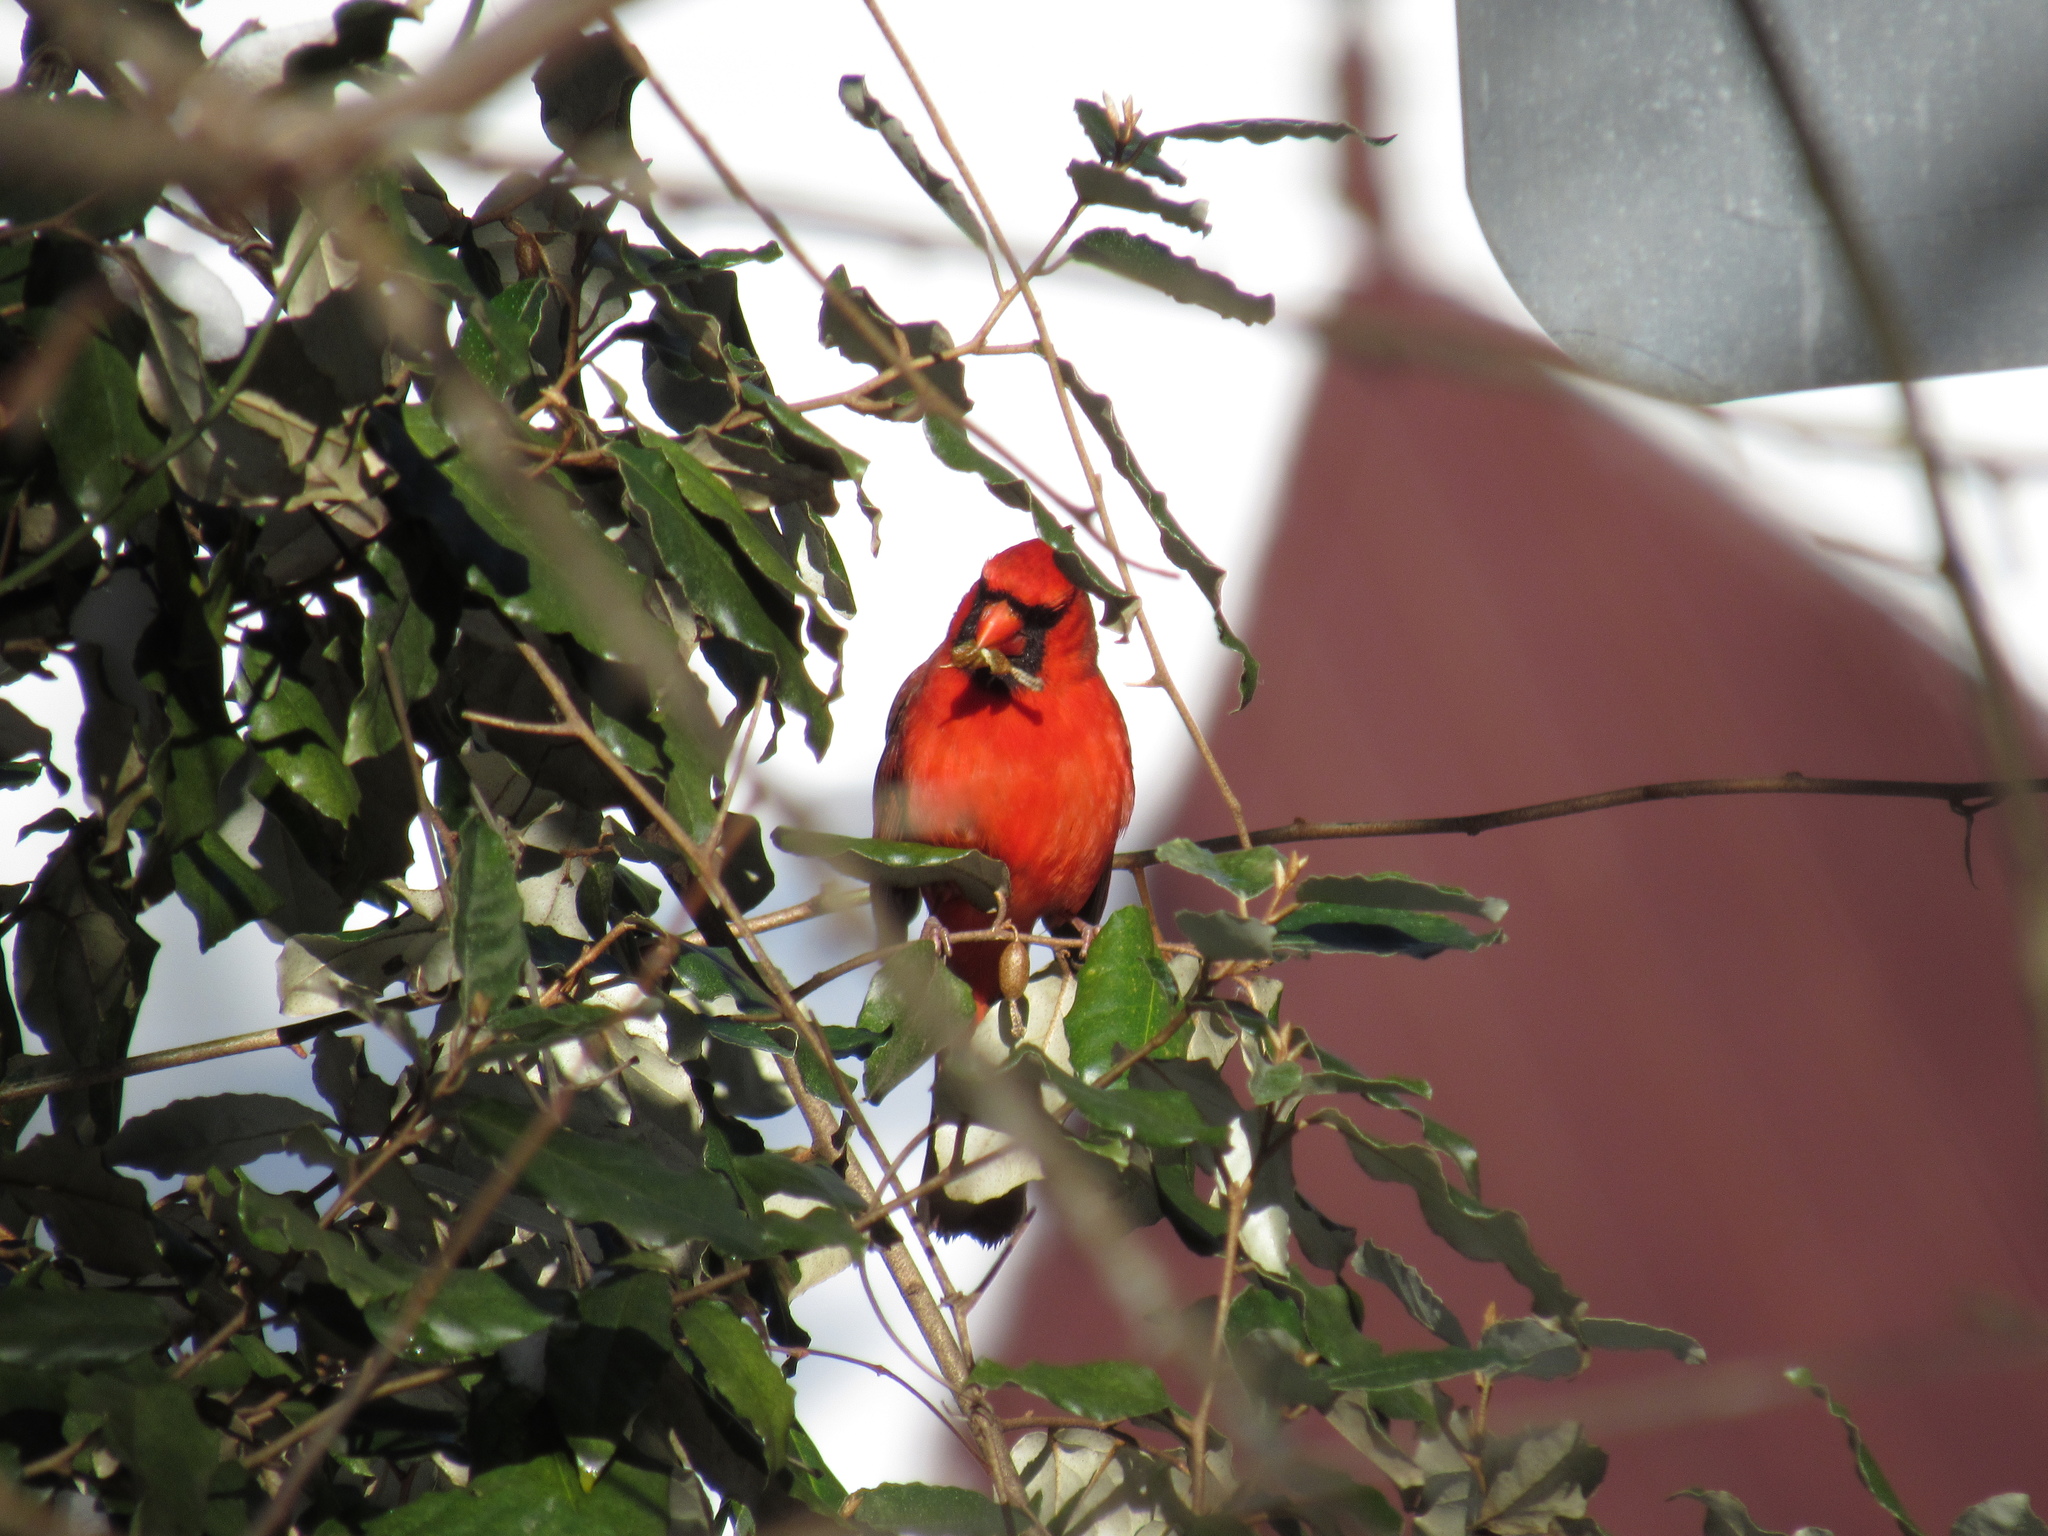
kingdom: Animalia
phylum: Chordata
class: Aves
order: Passeriformes
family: Cardinalidae
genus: Cardinalis
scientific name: Cardinalis cardinalis
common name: Northern cardinal
